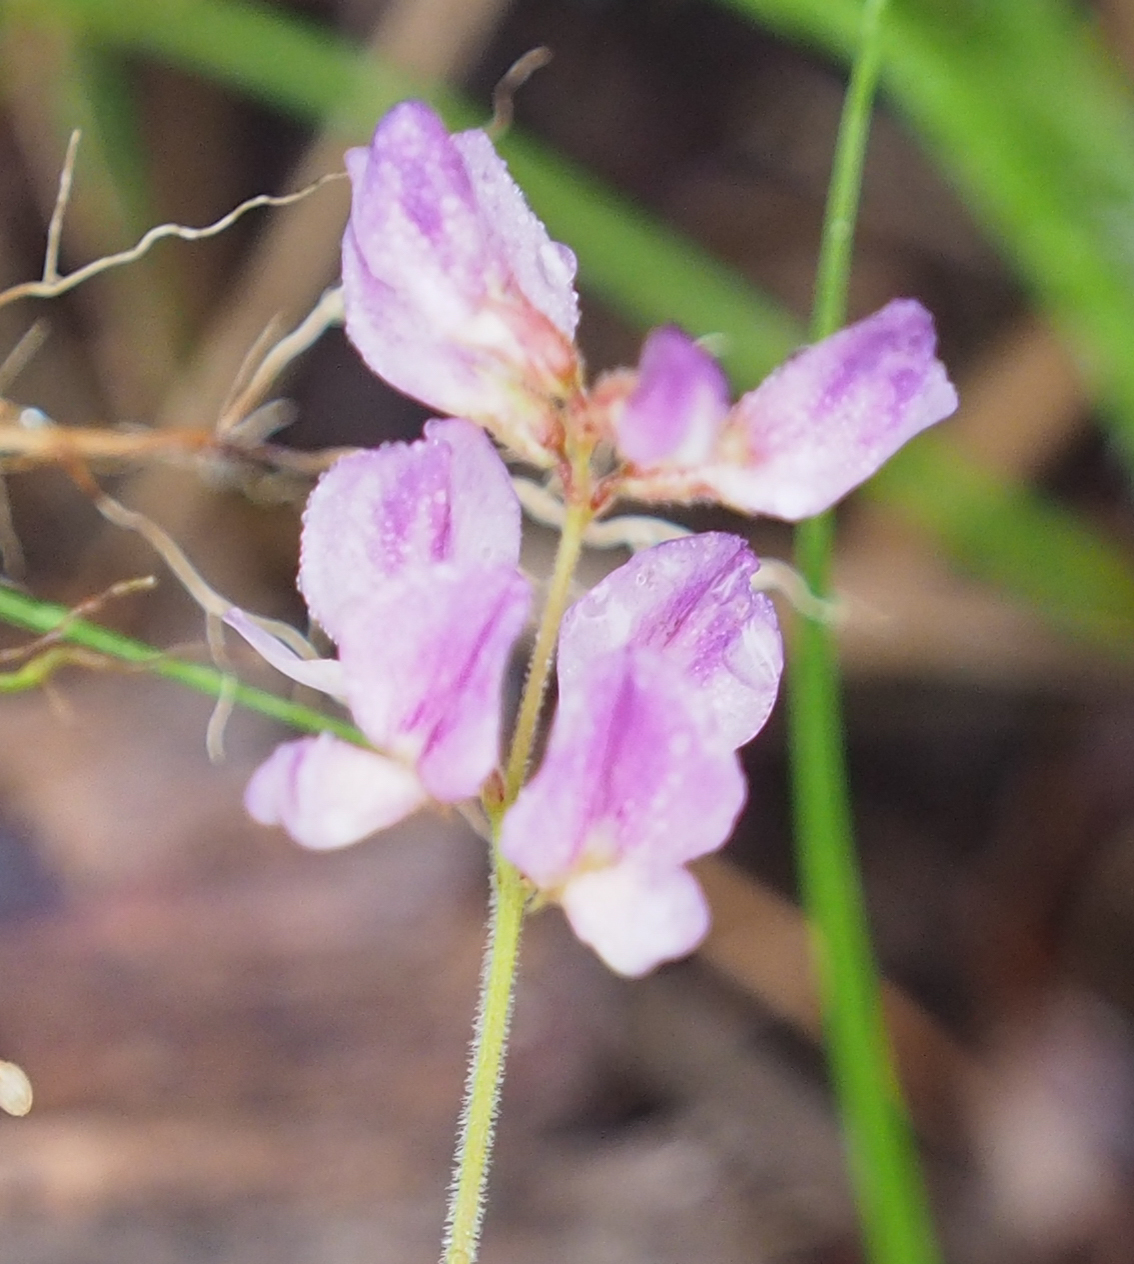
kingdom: Plantae
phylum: Tracheophyta
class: Magnoliopsida
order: Fabales
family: Fabaceae
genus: Lespedeza
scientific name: Lespedeza procumbens
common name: Downy trailing bush-clover
